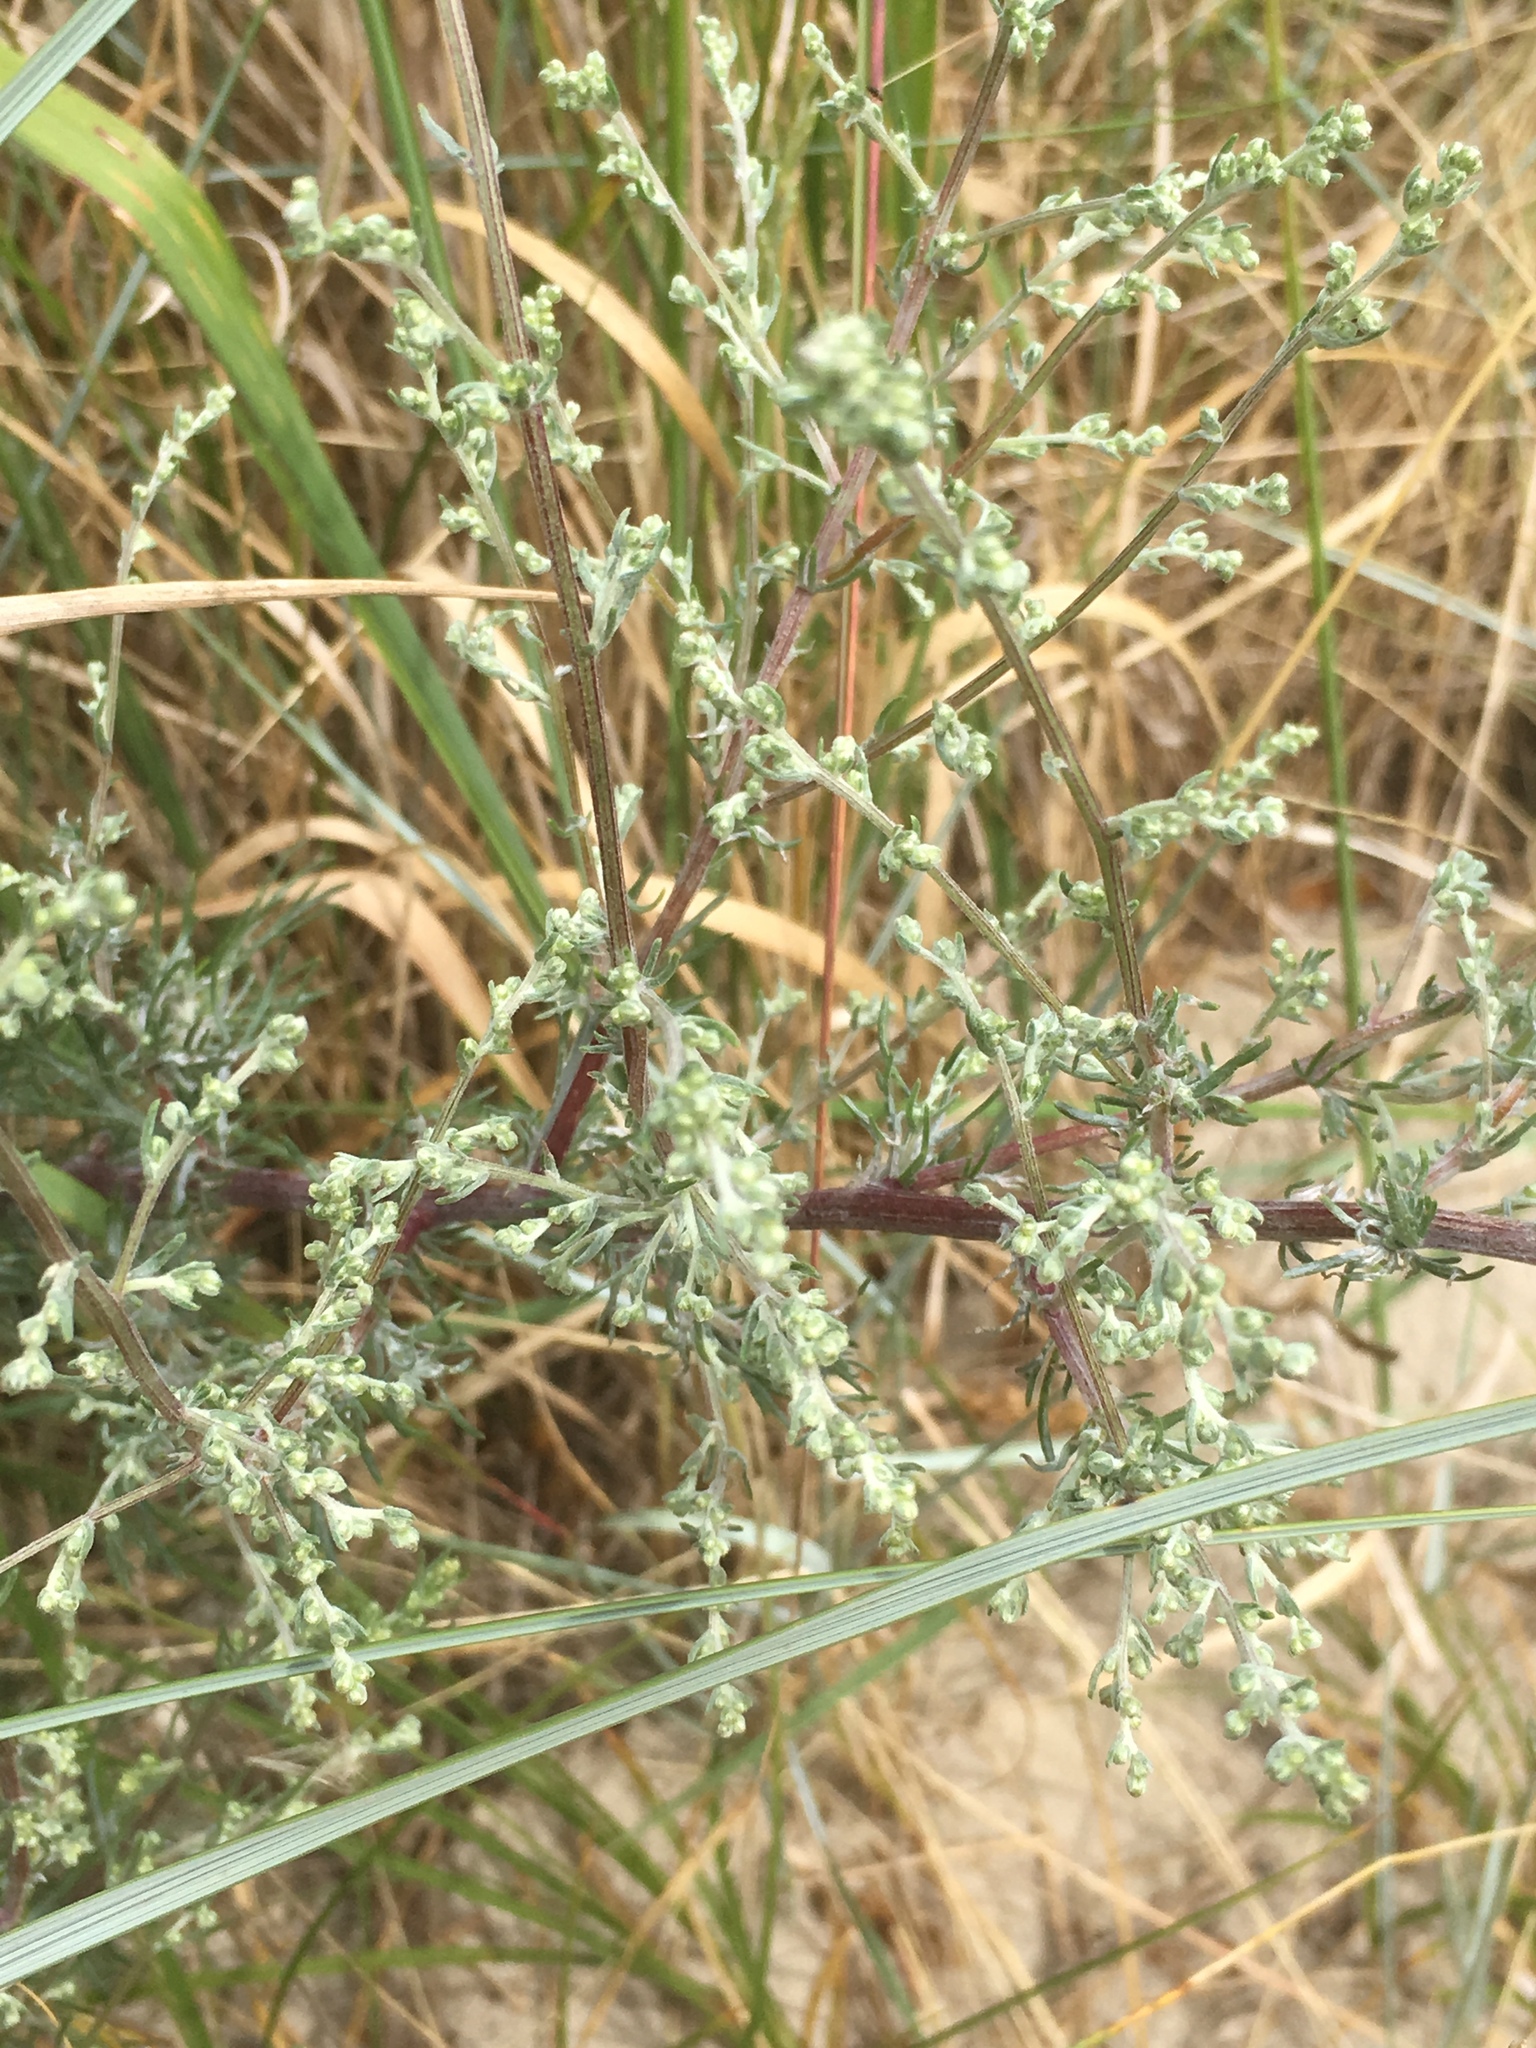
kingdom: Plantae
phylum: Tracheophyta
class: Magnoliopsida
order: Asterales
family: Asteraceae
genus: Artemisia
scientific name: Artemisia vulgaris
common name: Mugwort
